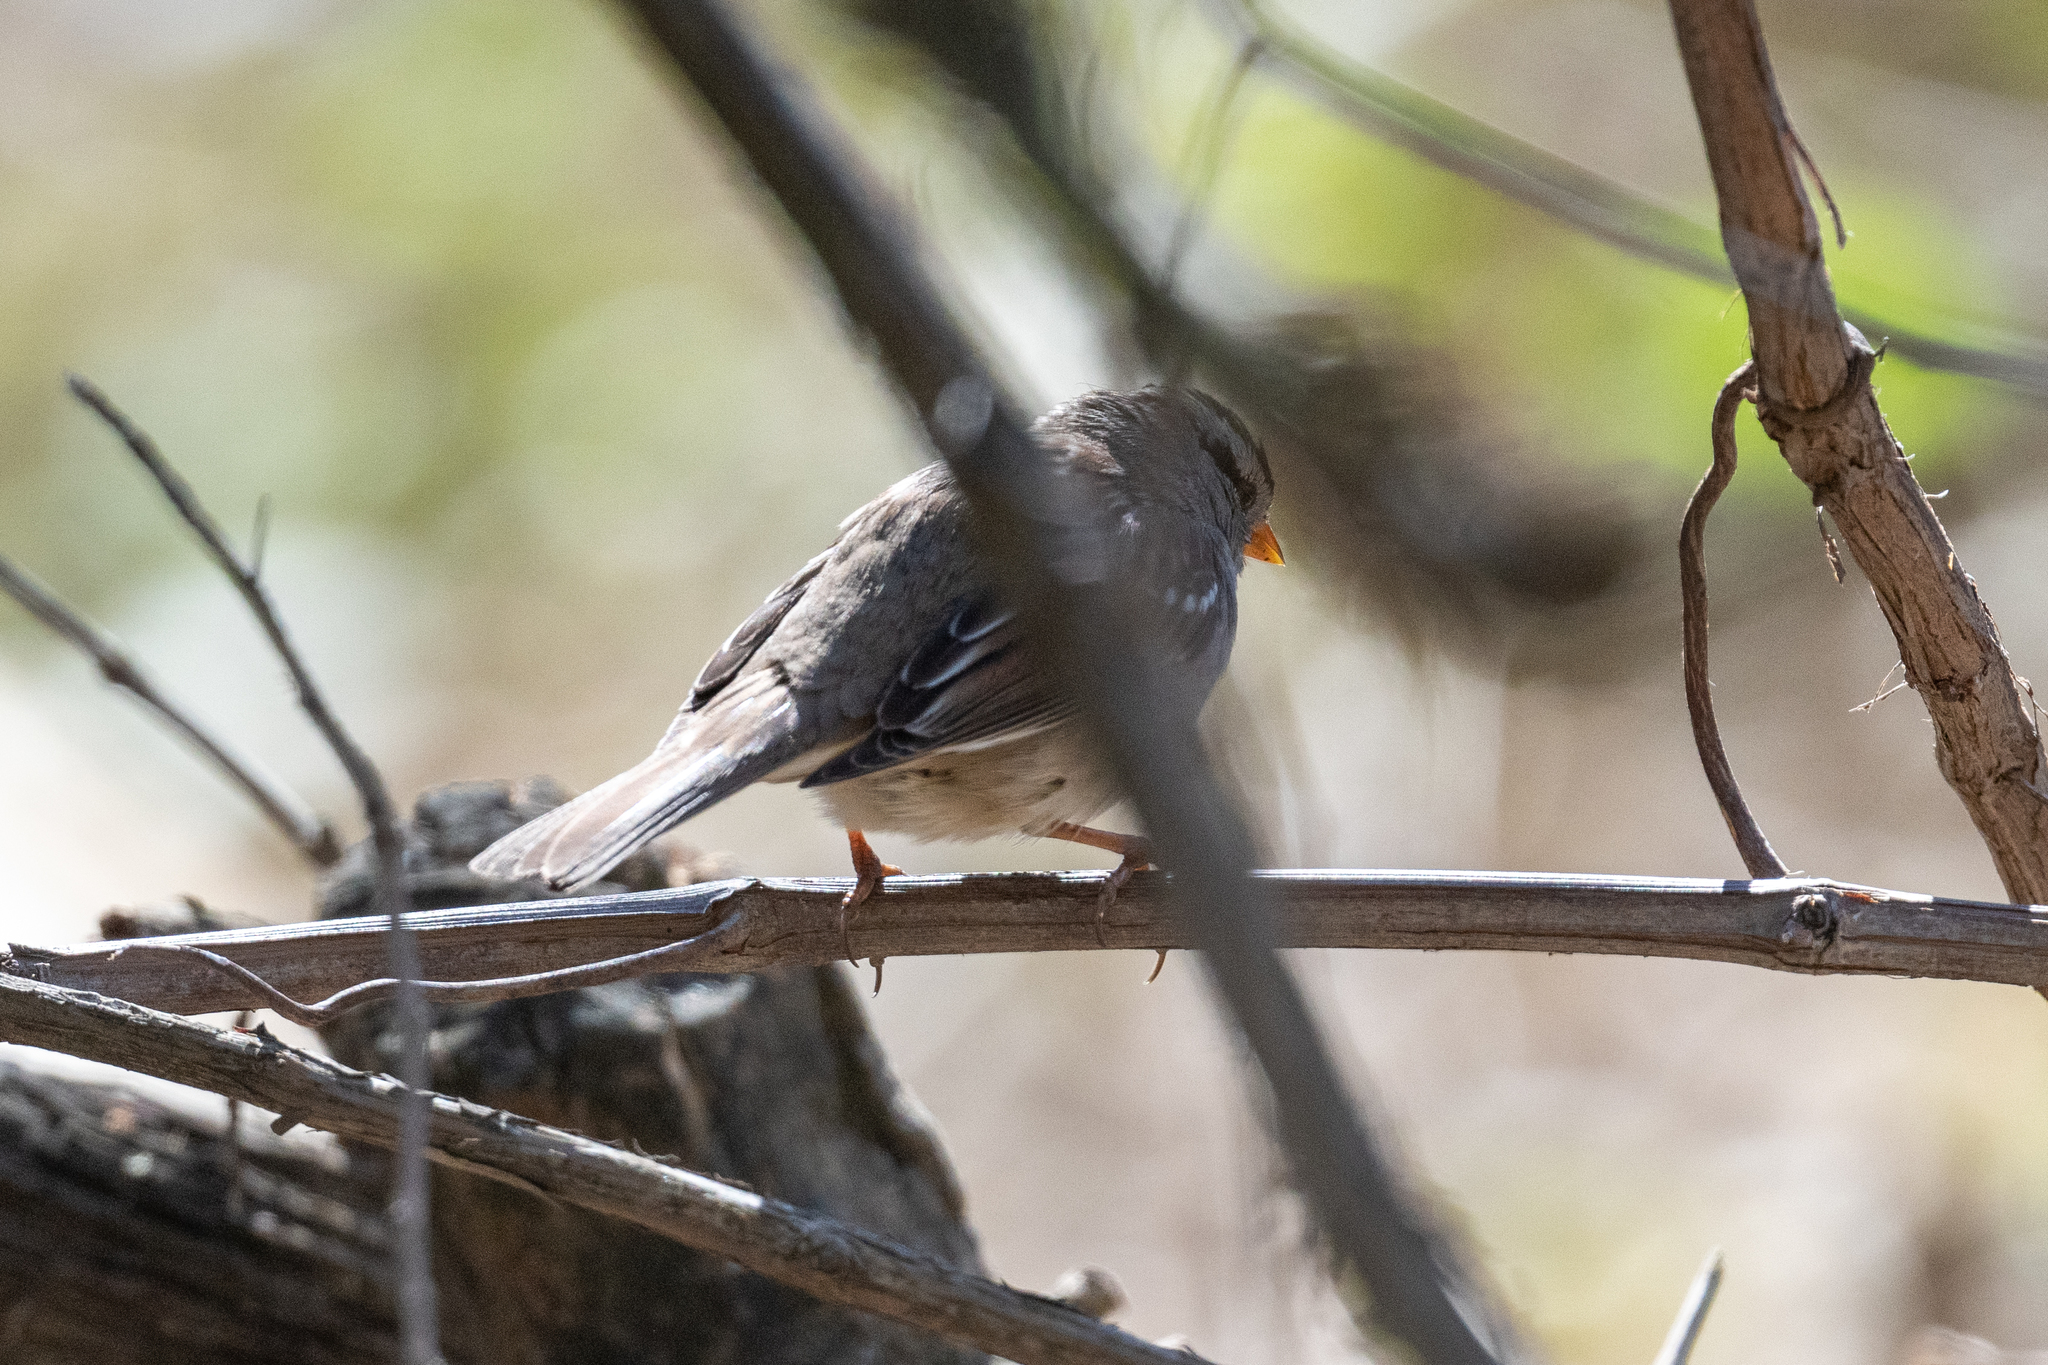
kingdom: Animalia
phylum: Chordata
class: Aves
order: Passeriformes
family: Passerellidae
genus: Zonotrichia
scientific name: Zonotrichia leucophrys
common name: White-crowned sparrow
